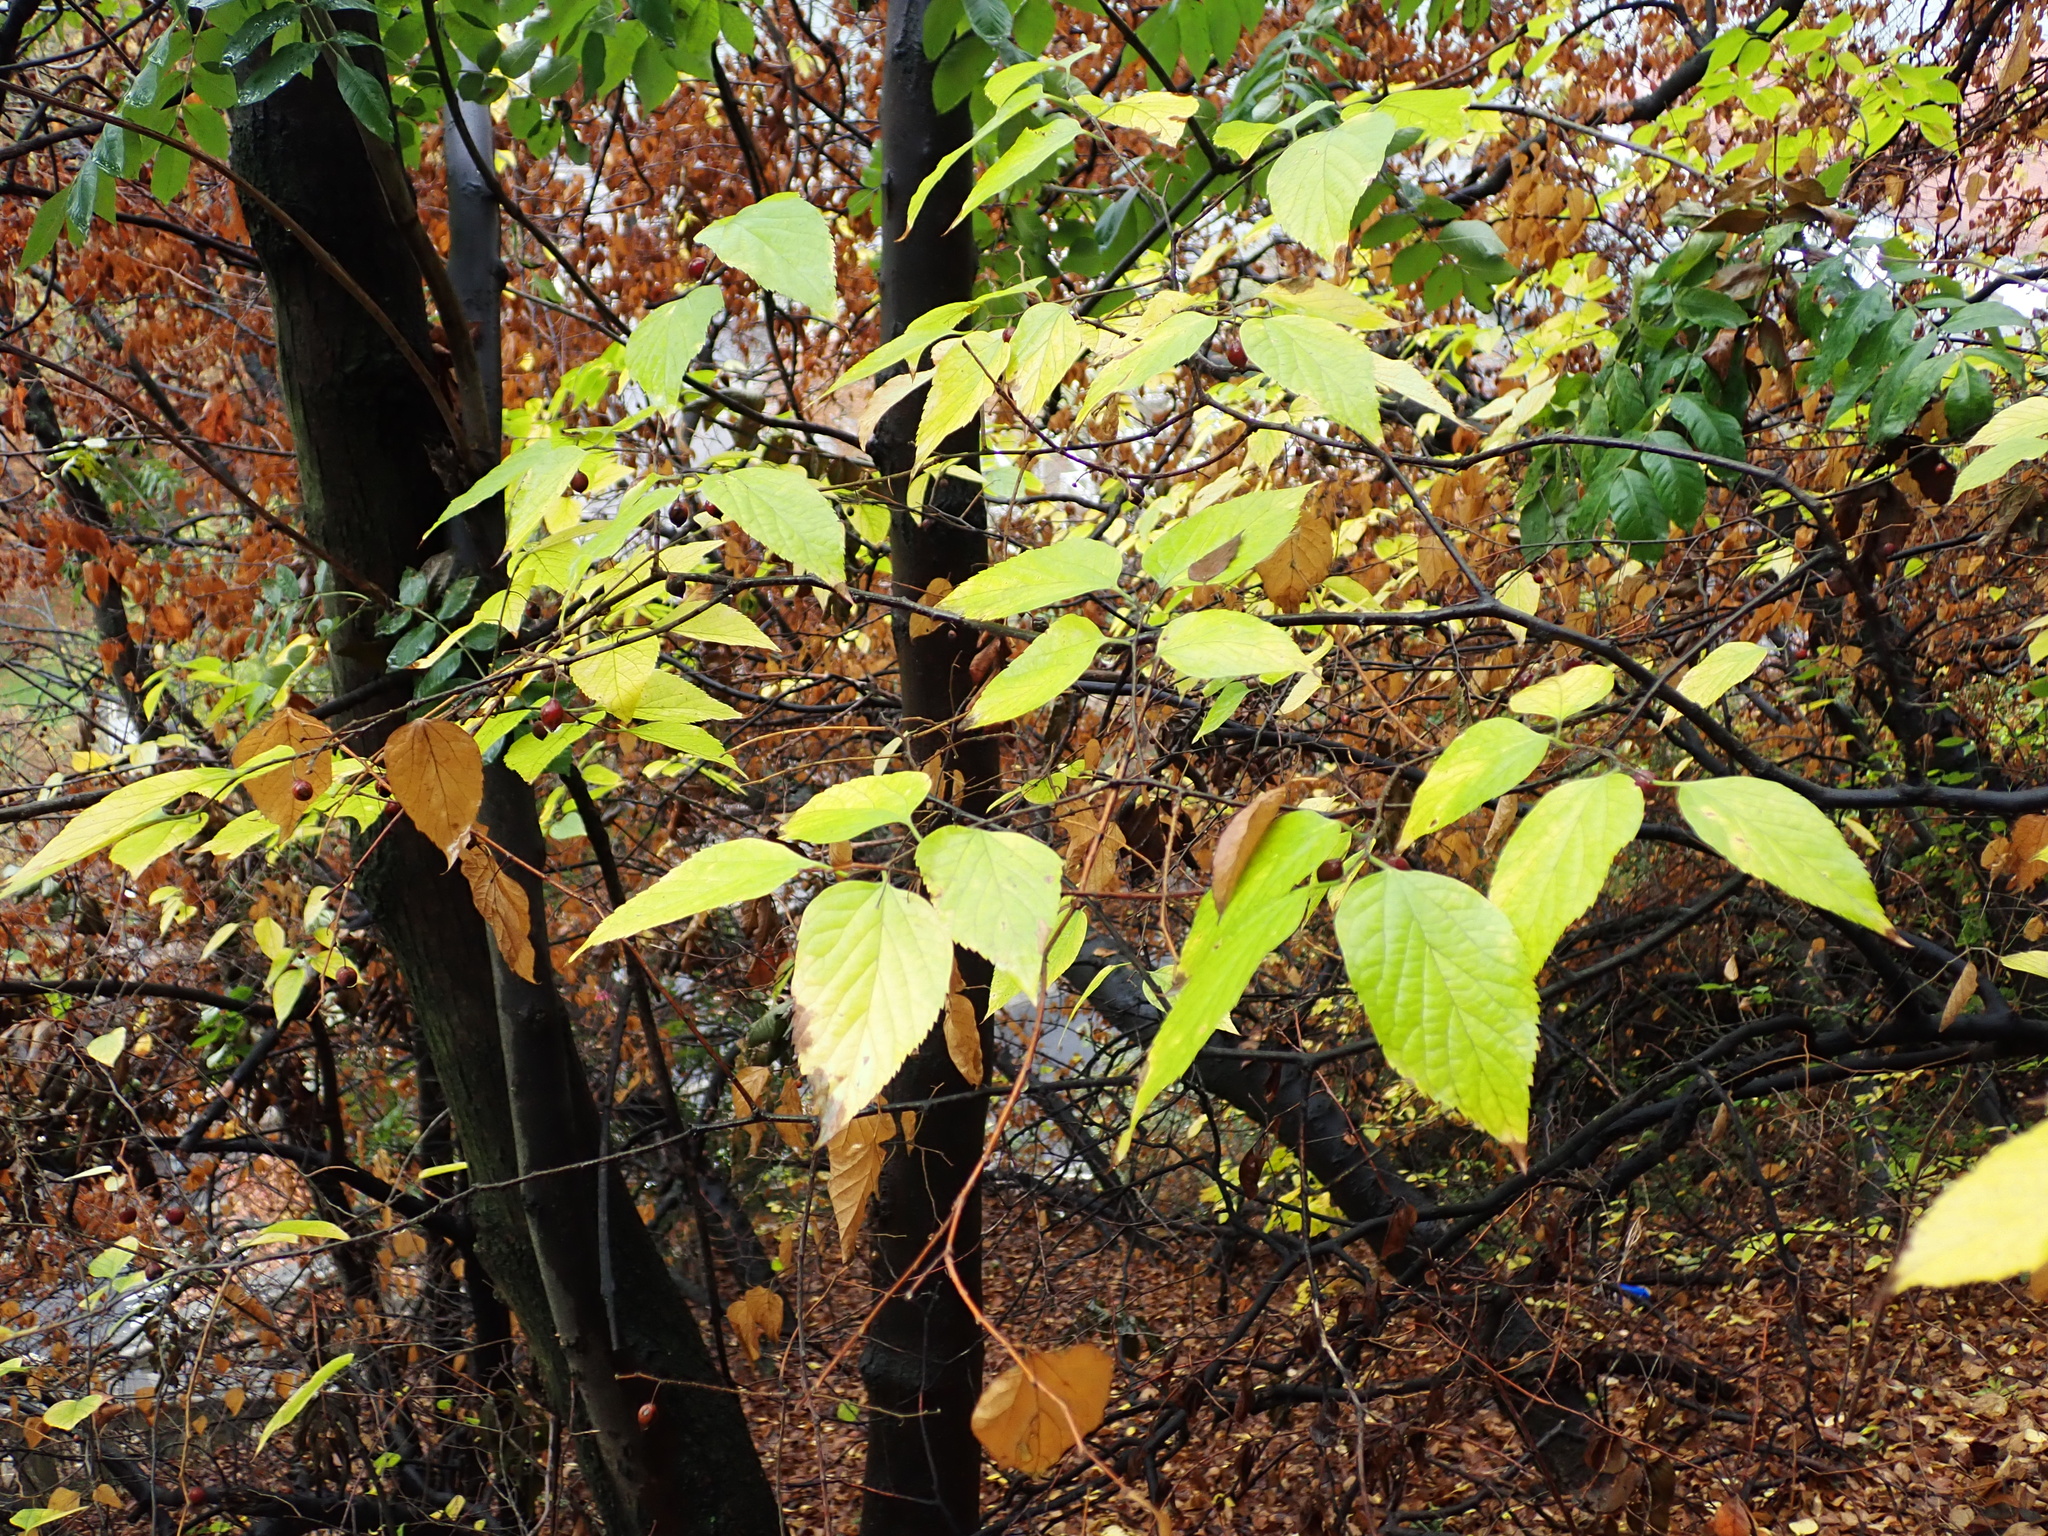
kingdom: Plantae
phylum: Tracheophyta
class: Magnoliopsida
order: Rosales
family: Cannabaceae
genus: Celtis
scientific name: Celtis occidentalis
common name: Common hackberry
